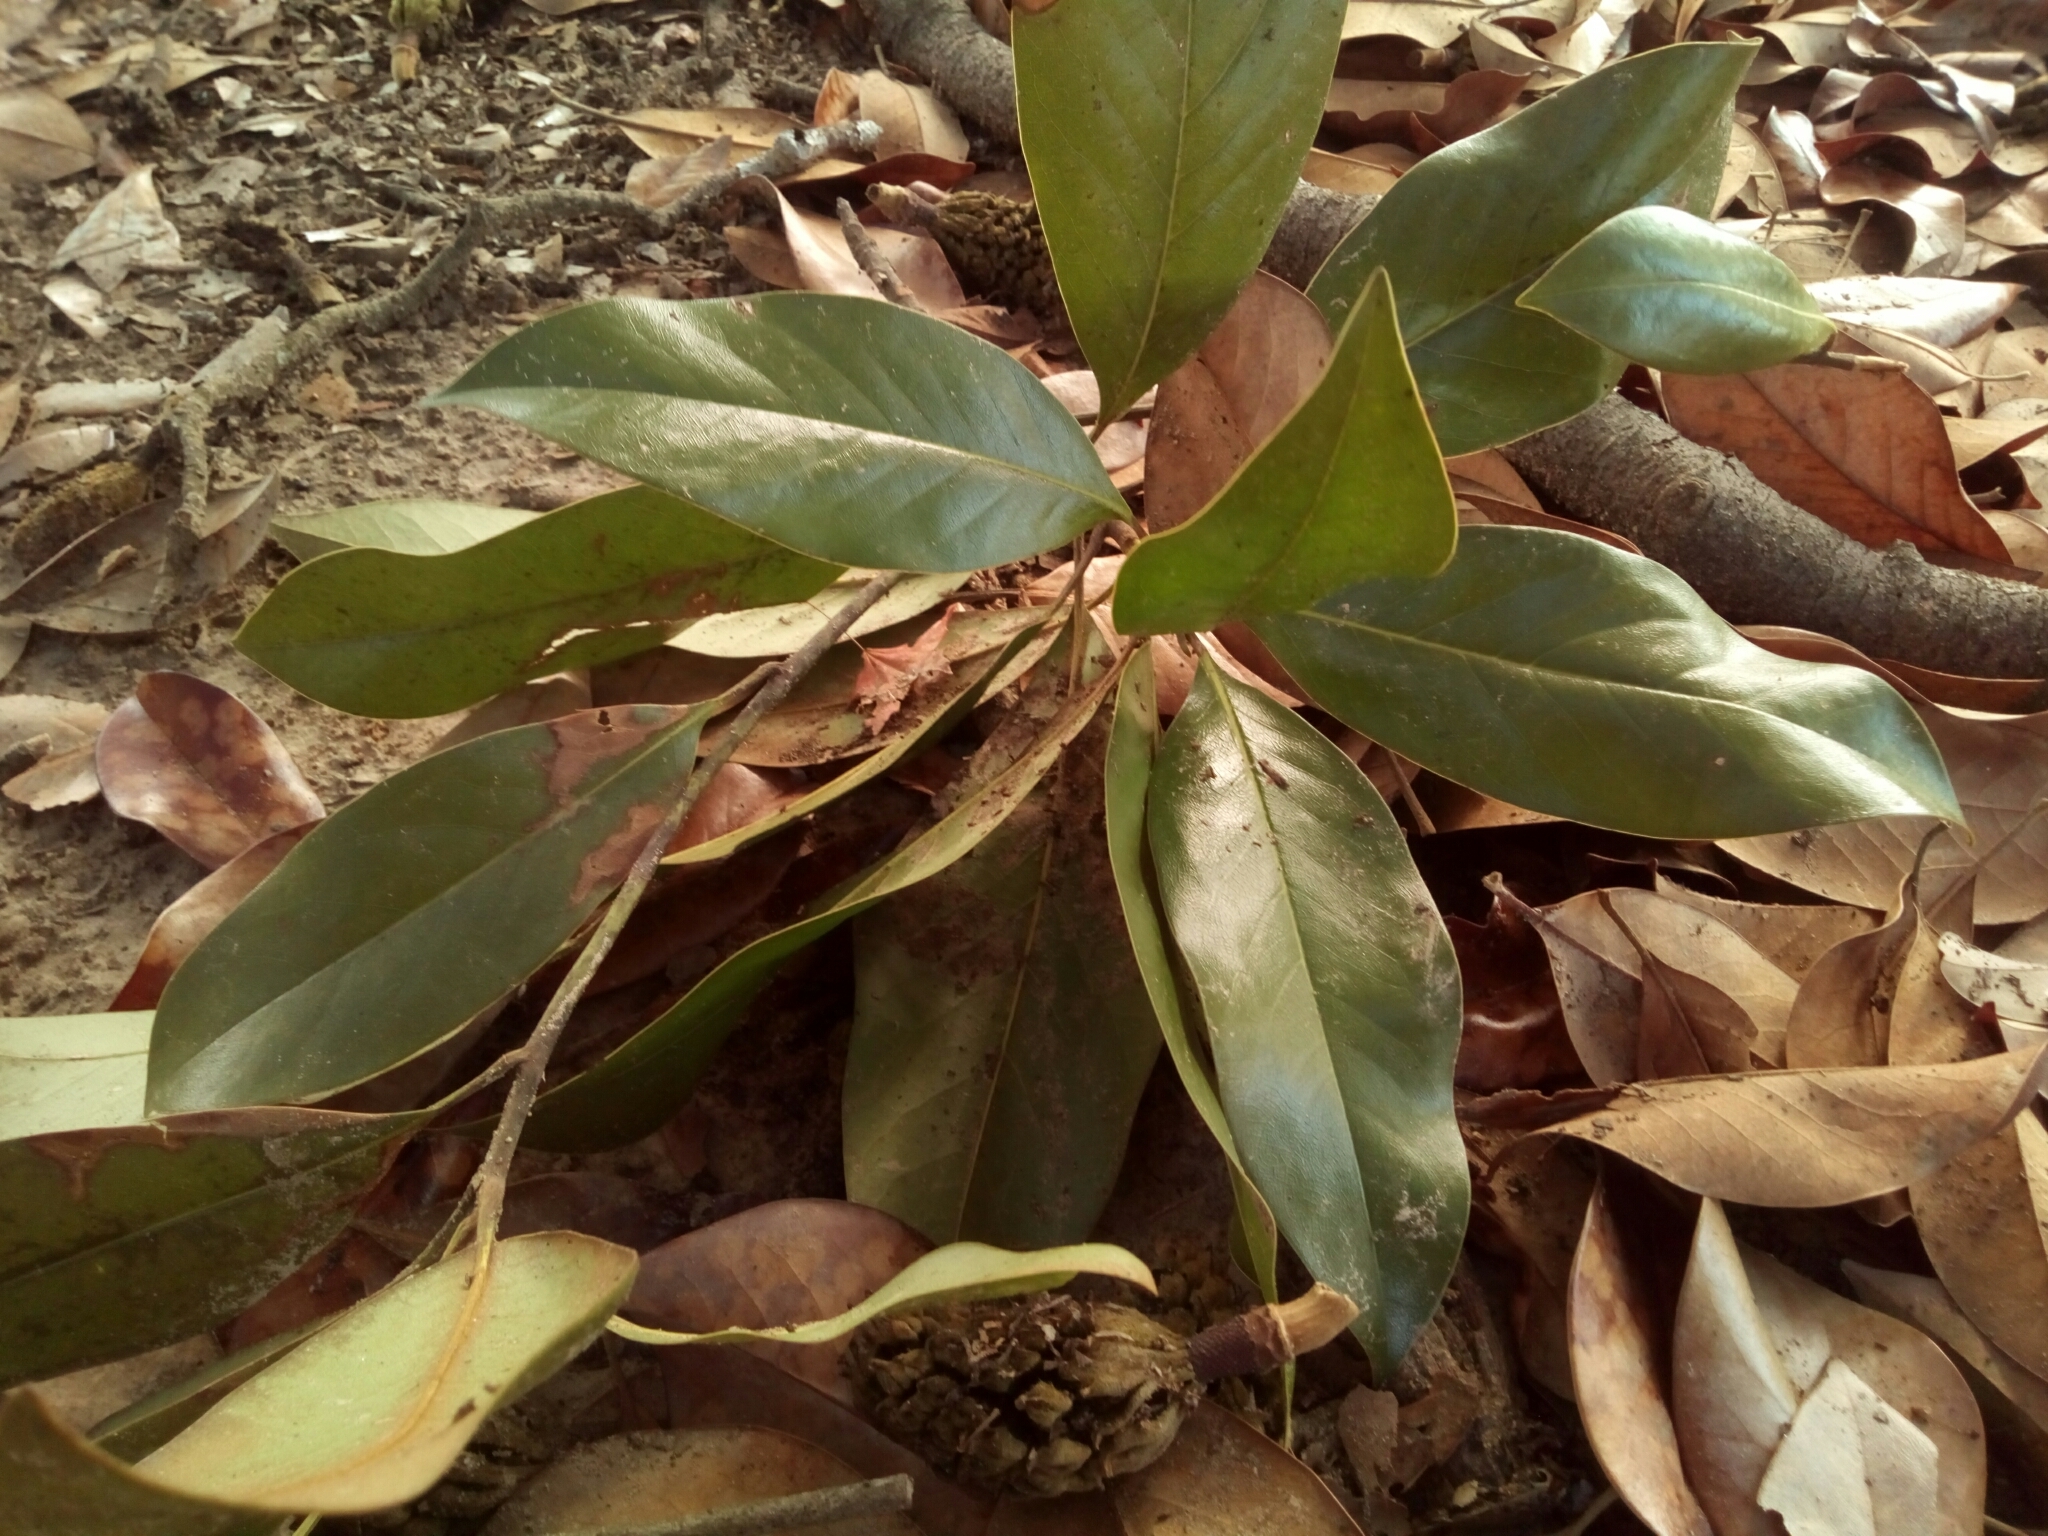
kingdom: Plantae
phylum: Tracheophyta
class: Magnoliopsida
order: Magnoliales
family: Magnoliaceae
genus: Magnolia
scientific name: Magnolia grandiflora
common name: Southern magnolia
